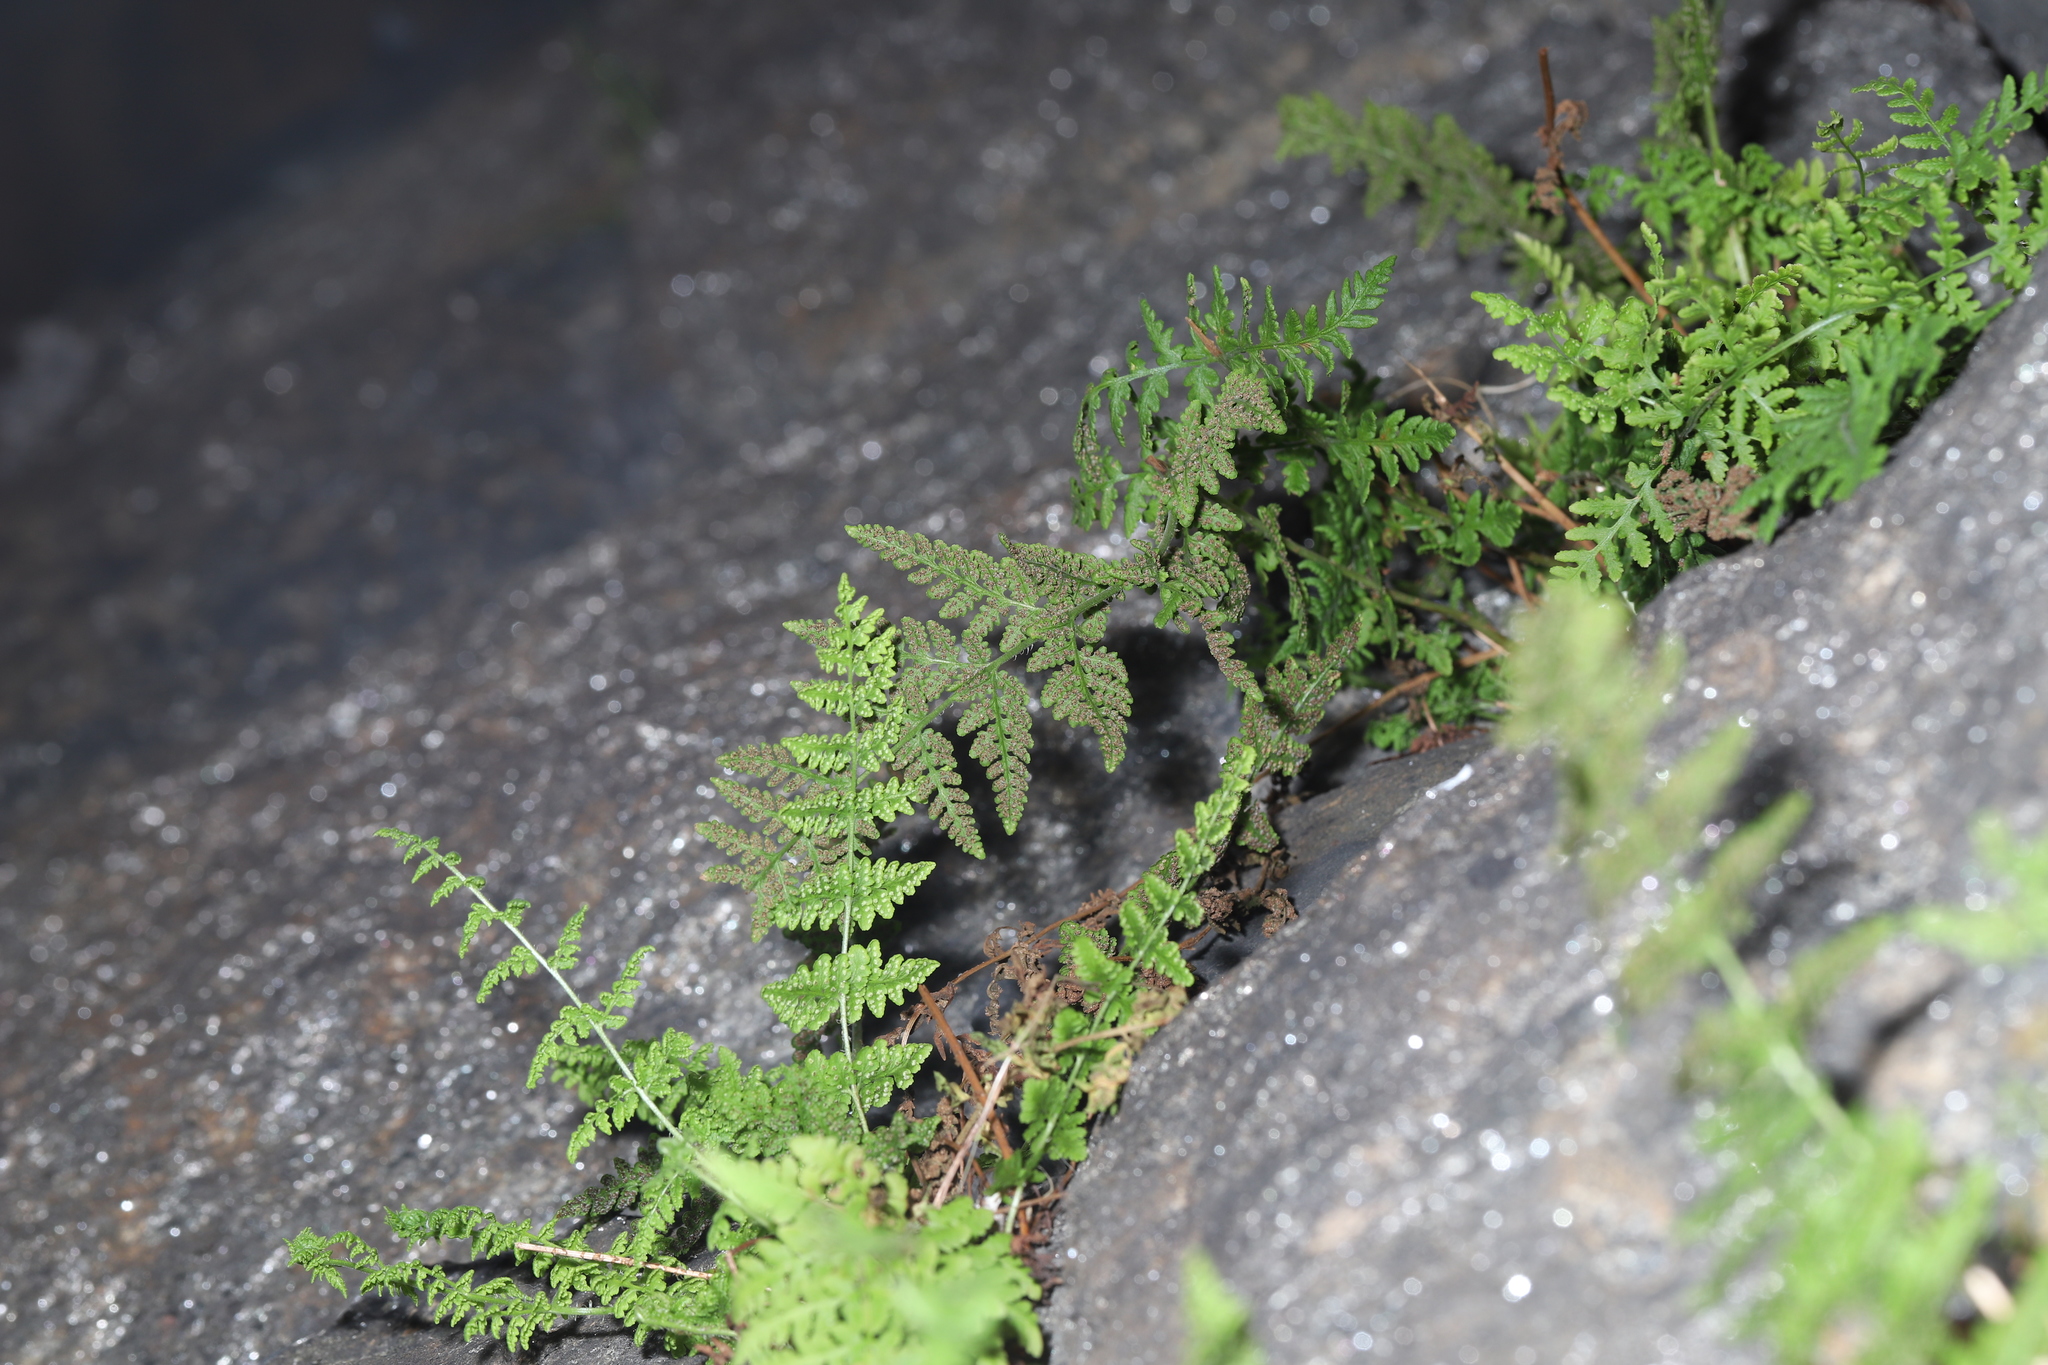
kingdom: Plantae
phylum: Tracheophyta
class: Polypodiopsida
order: Polypodiales
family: Woodsiaceae
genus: Physematium
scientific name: Physematium obtusum
